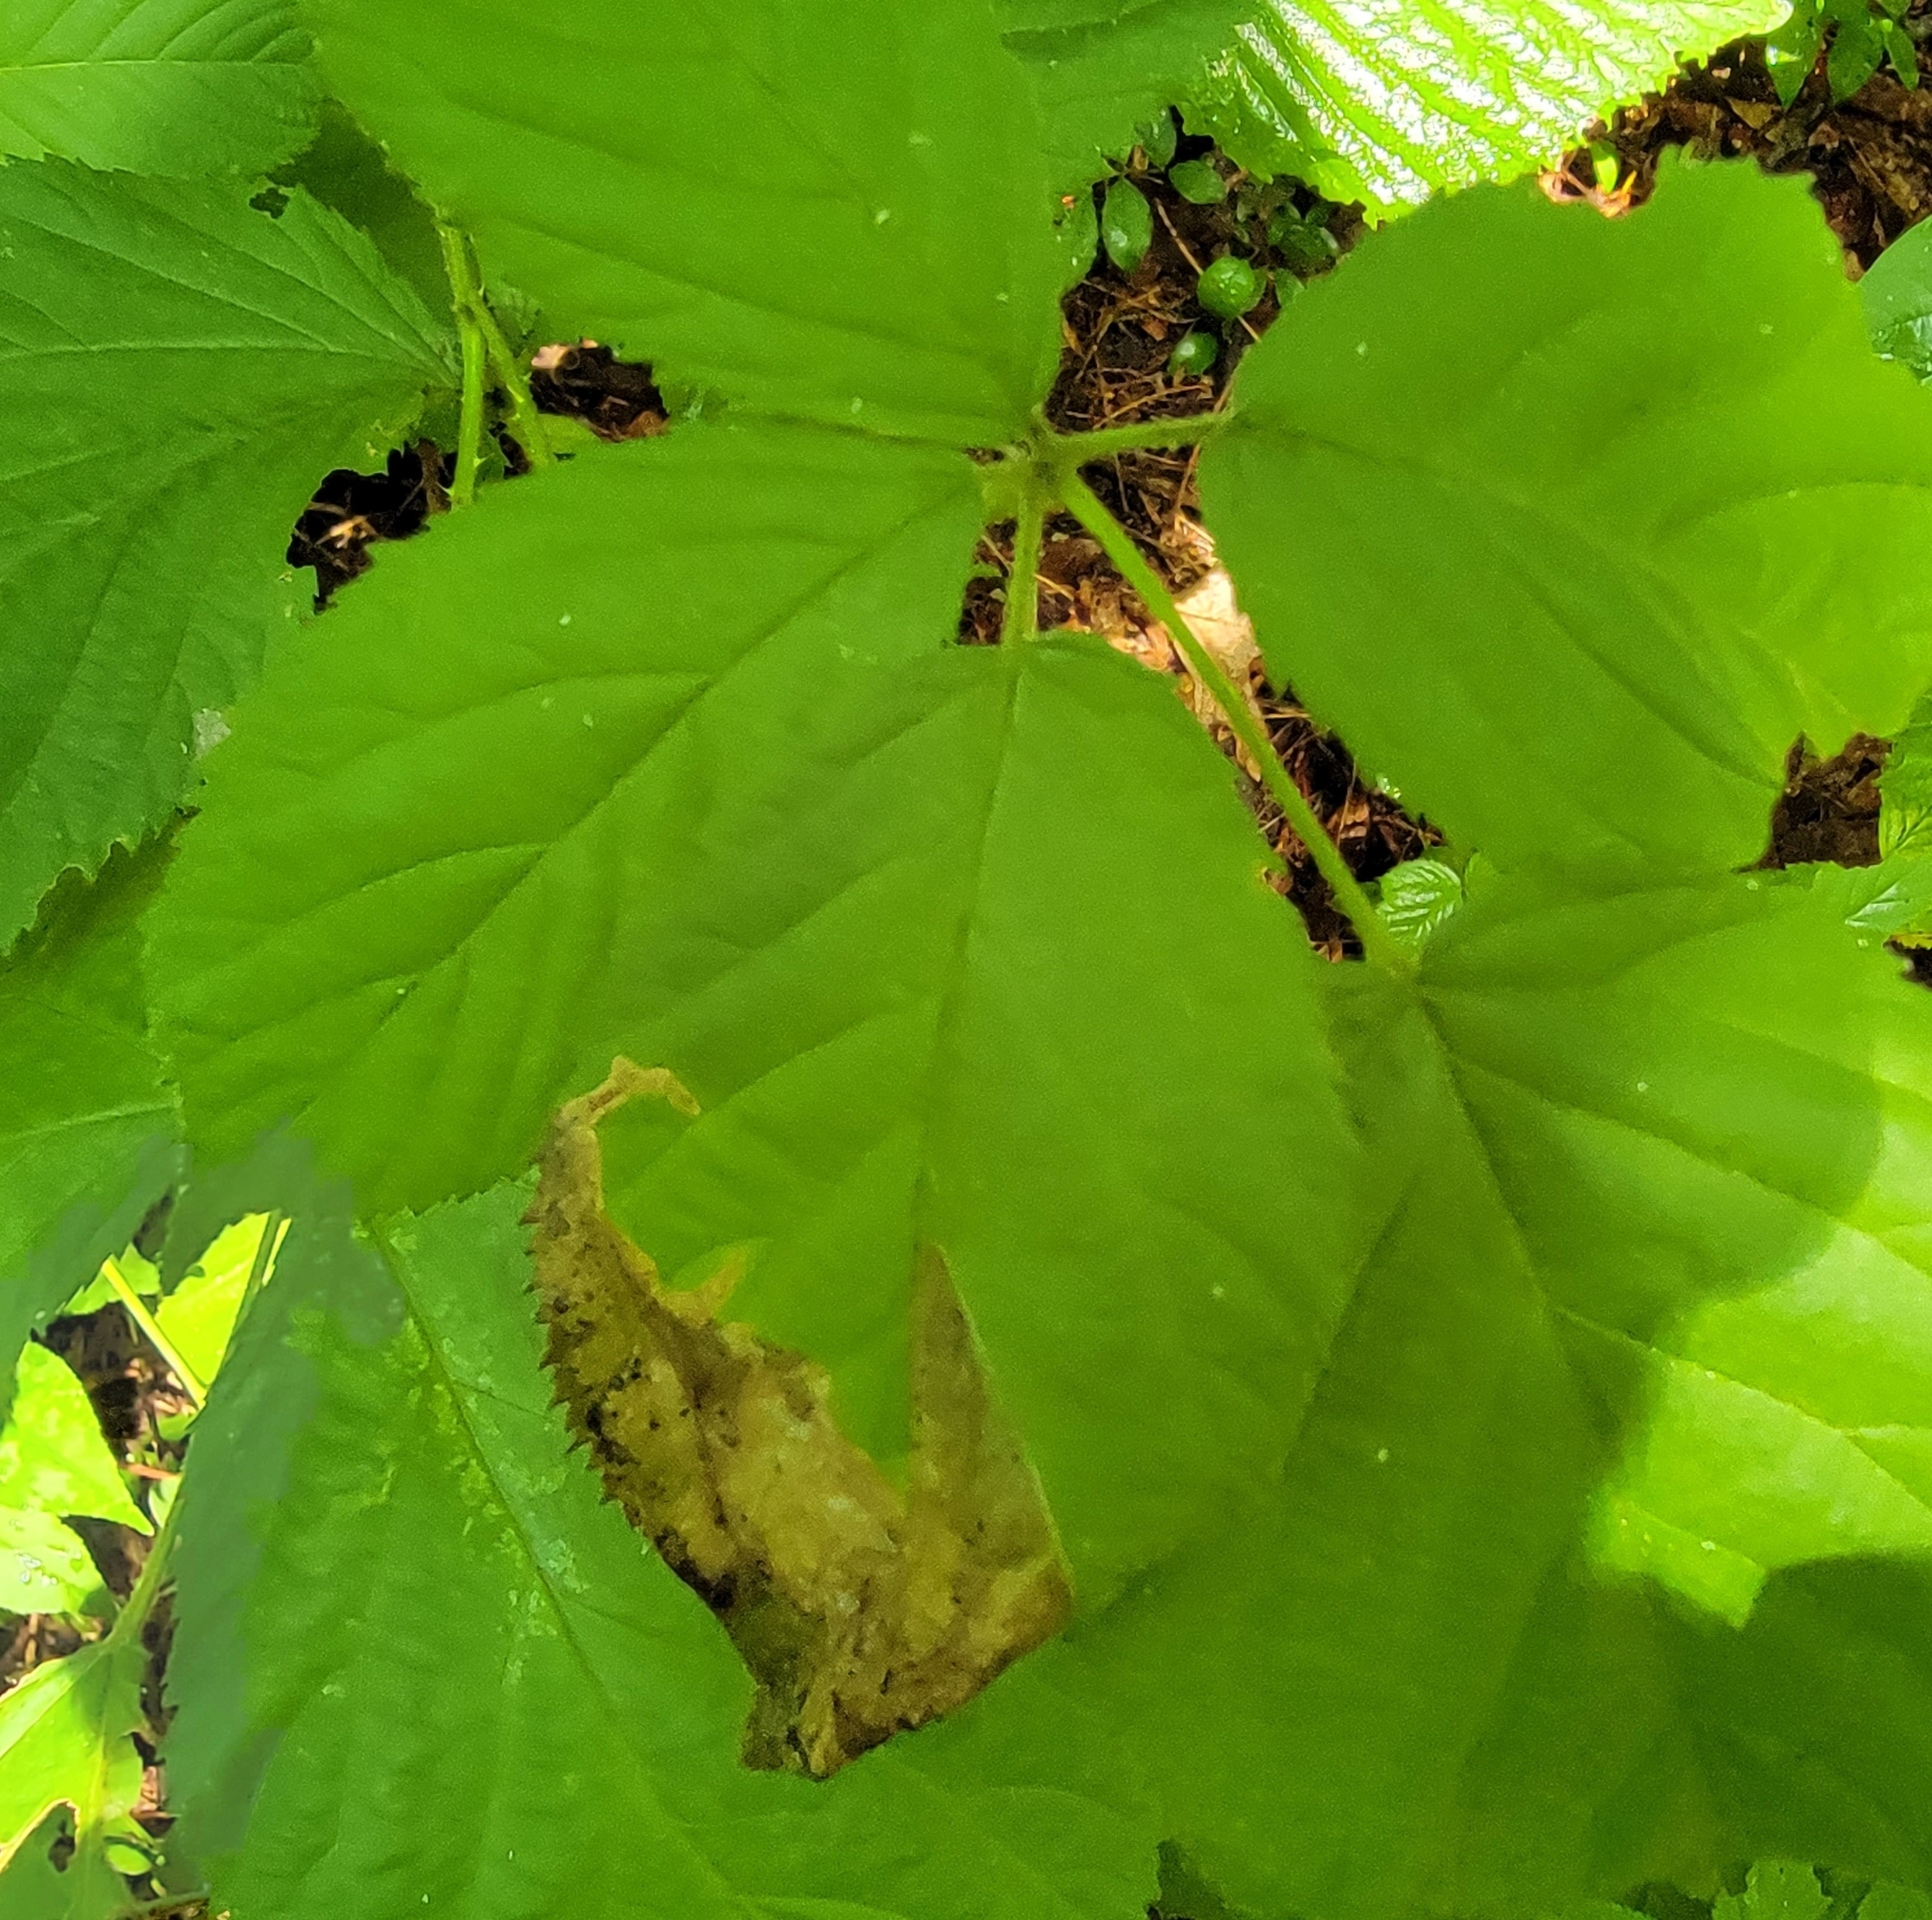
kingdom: Animalia
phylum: Arthropoda
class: Insecta
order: Hymenoptera
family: Tenthredinidae
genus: Metallus
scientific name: Metallus rohweri
